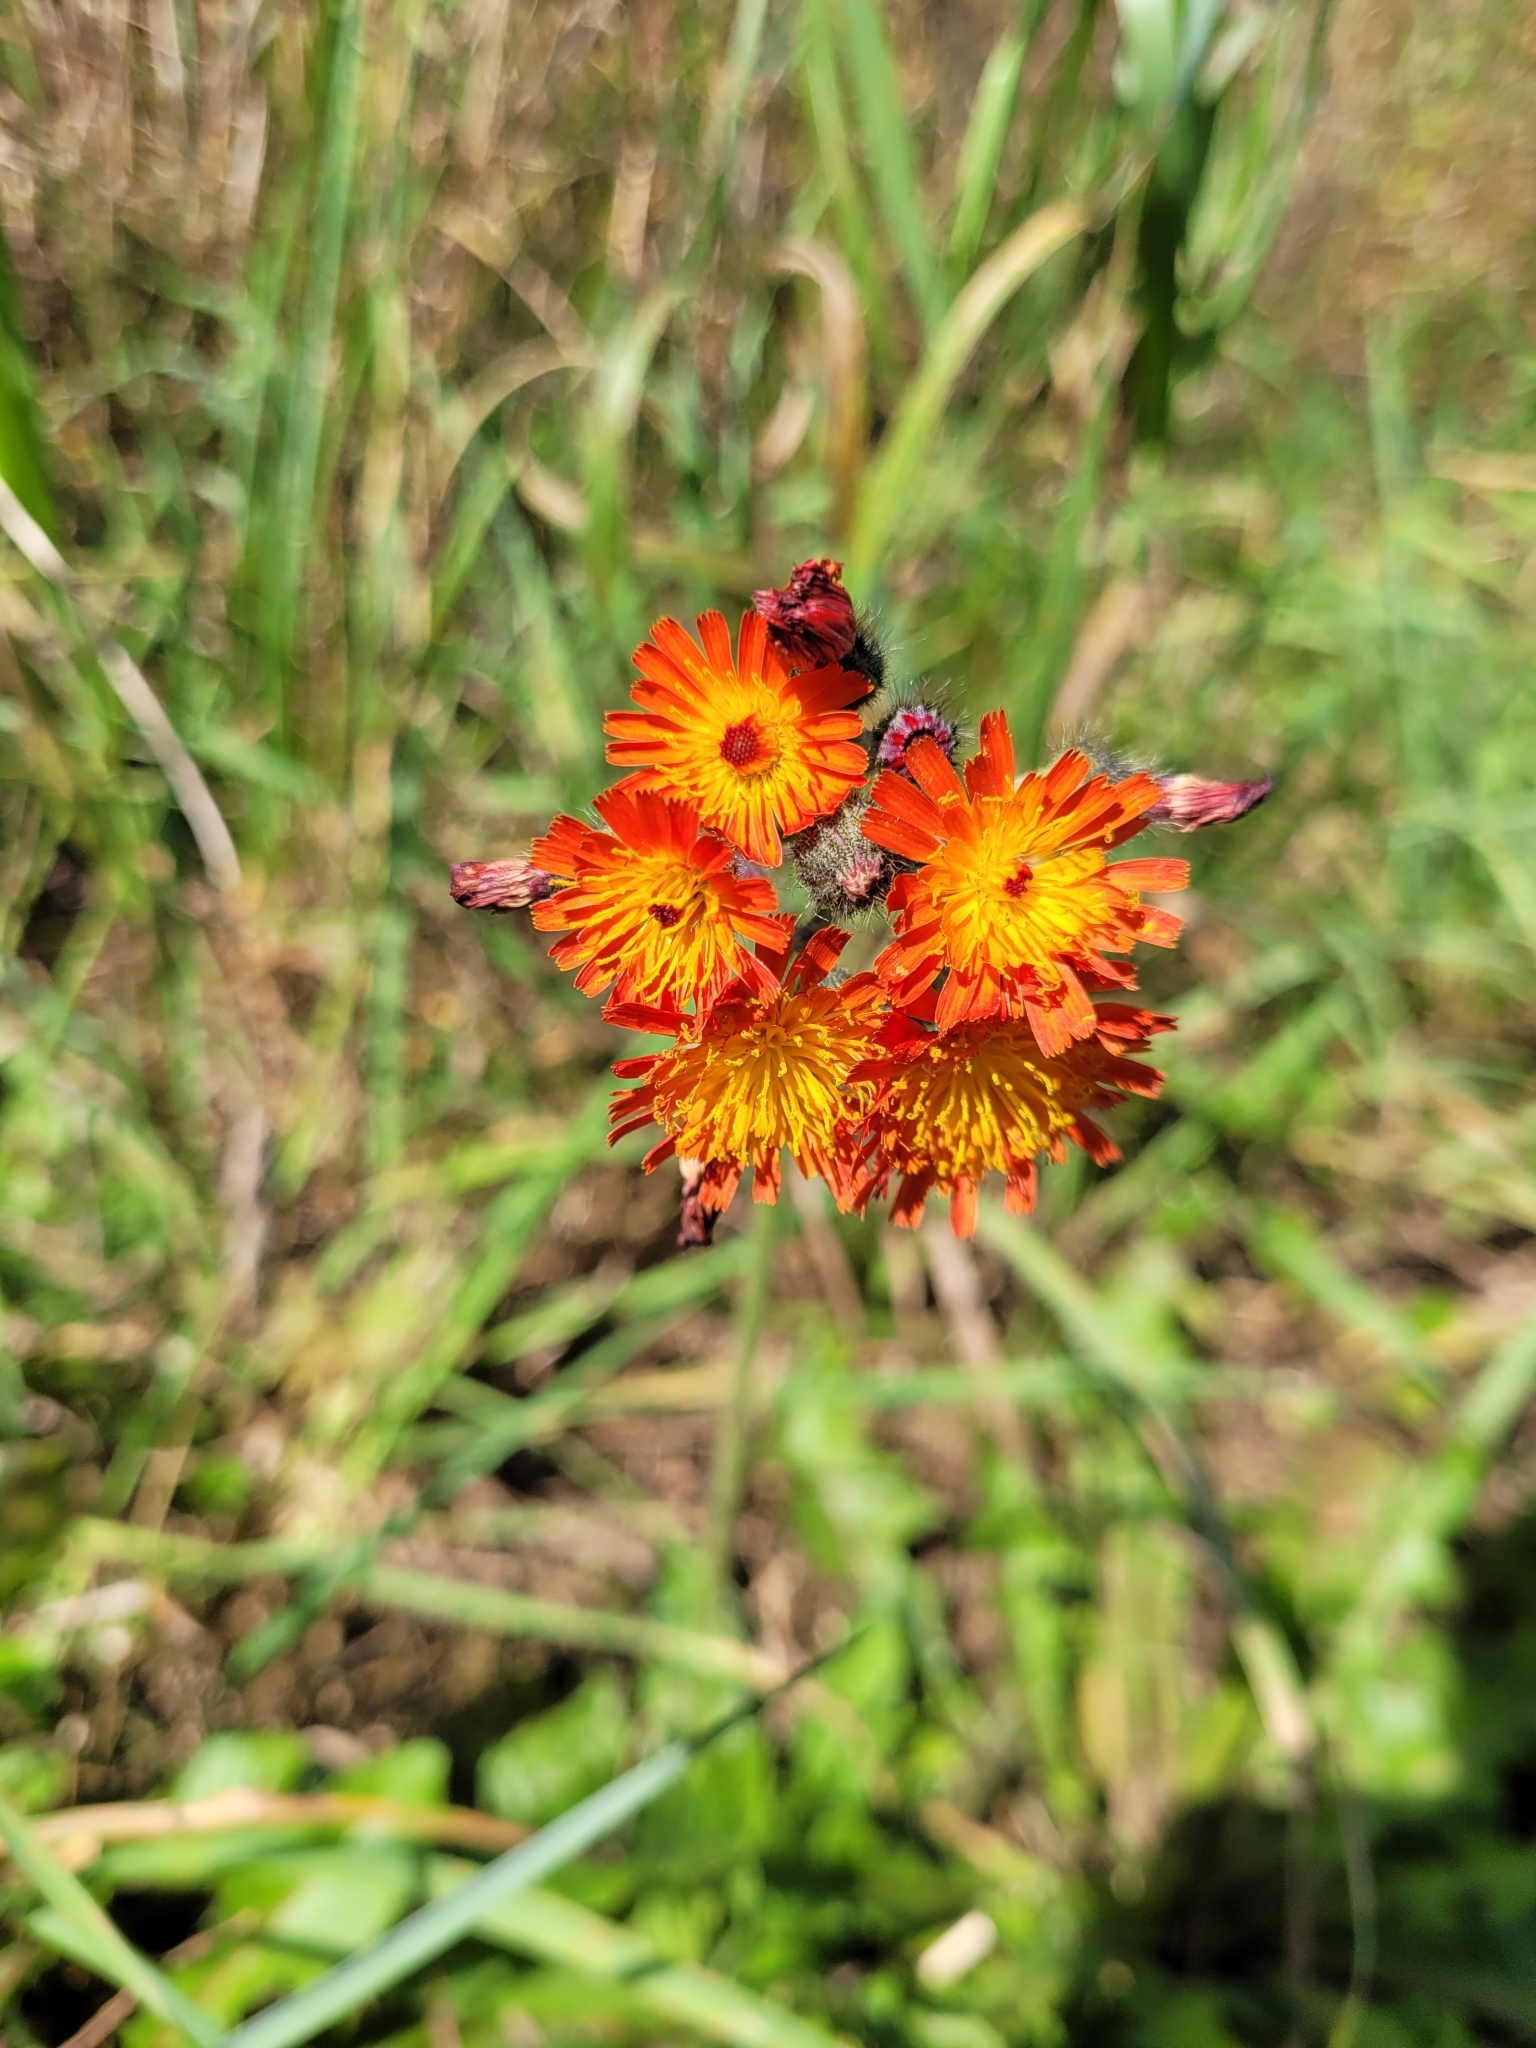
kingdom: Plantae
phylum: Tracheophyta
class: Magnoliopsida
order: Asterales
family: Asteraceae
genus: Pilosella
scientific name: Pilosella aurantiaca
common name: Fox-and-cubs
